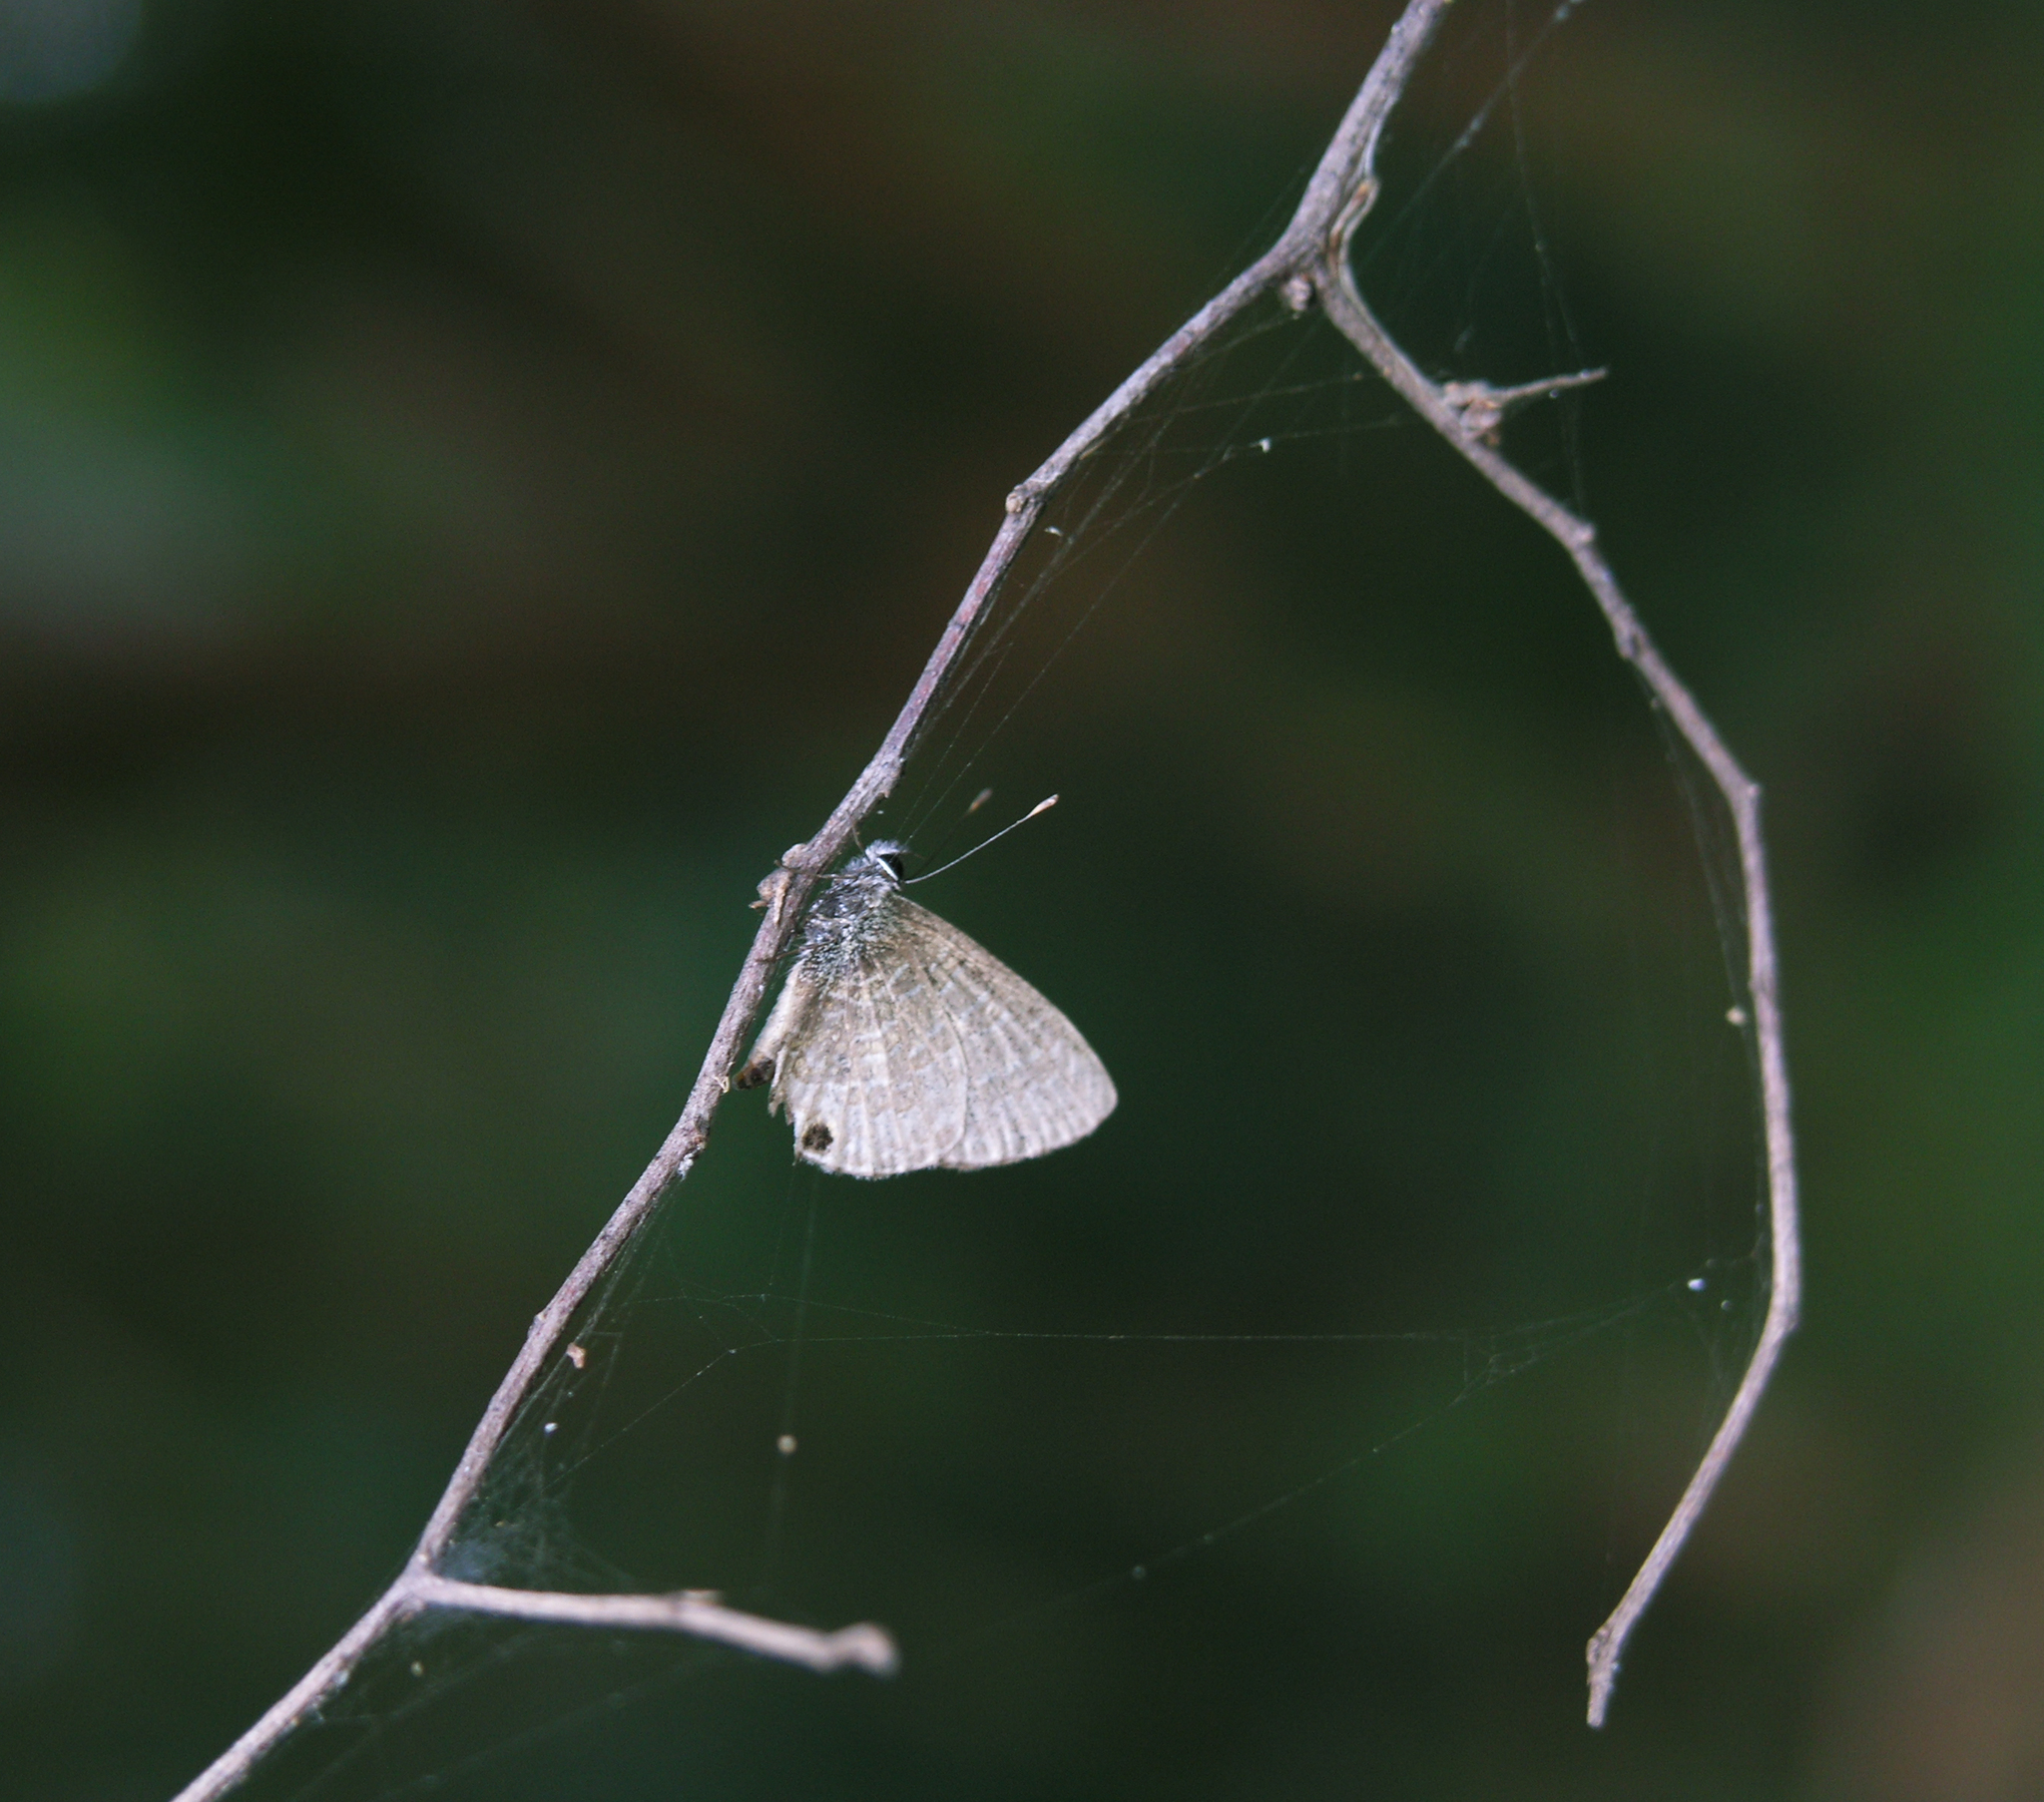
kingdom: Animalia
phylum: Arthropoda
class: Insecta
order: Lepidoptera
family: Lycaenidae
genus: Prosotas
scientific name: Prosotas dubiosa
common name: Tailless lineblue
